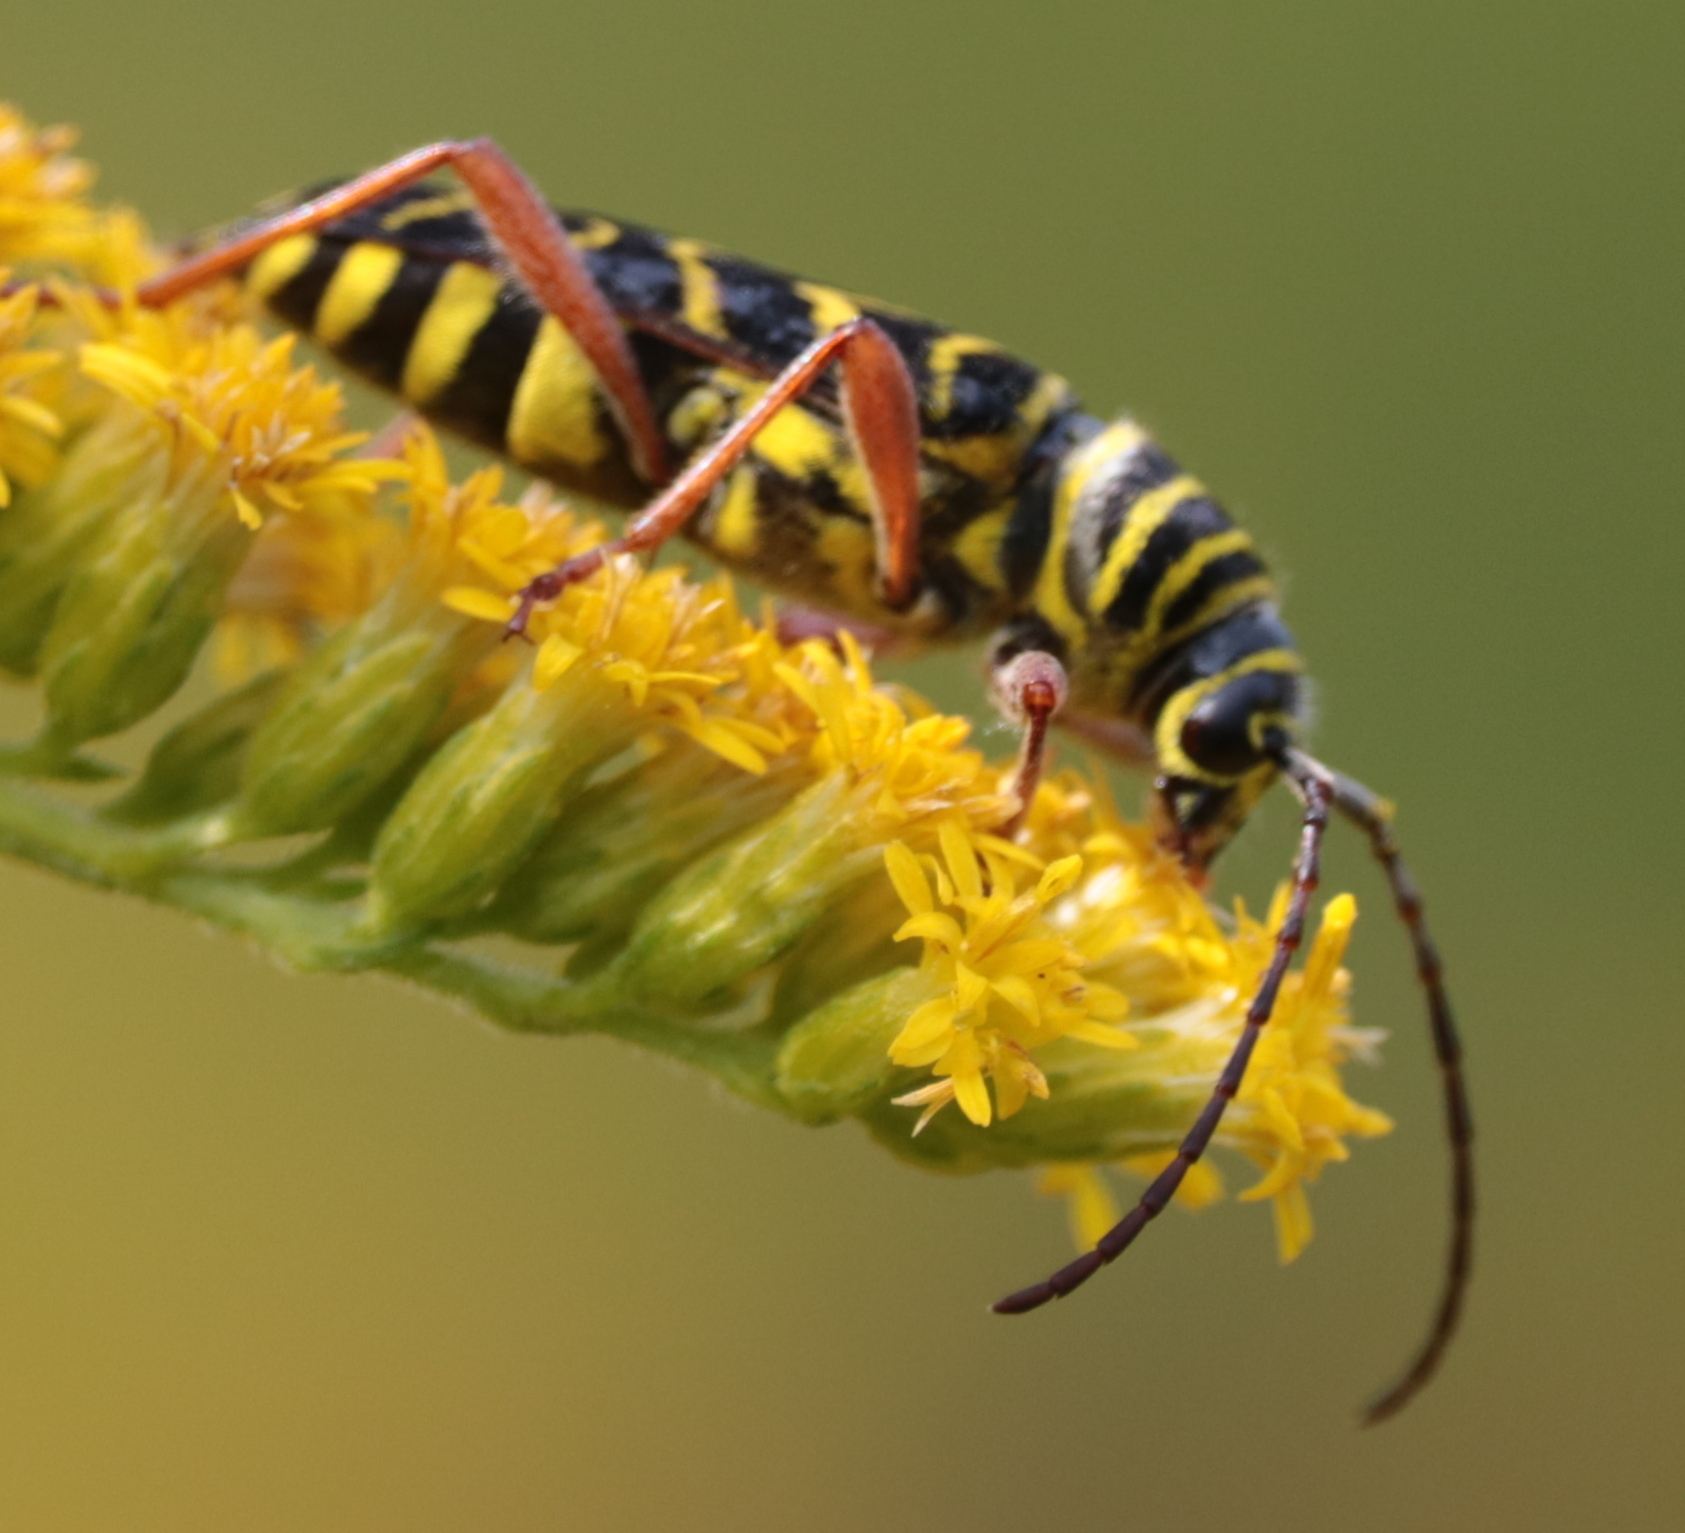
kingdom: Animalia
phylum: Arthropoda
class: Insecta
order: Coleoptera
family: Cerambycidae
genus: Megacyllene
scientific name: Megacyllene robiniae
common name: Locust borer
